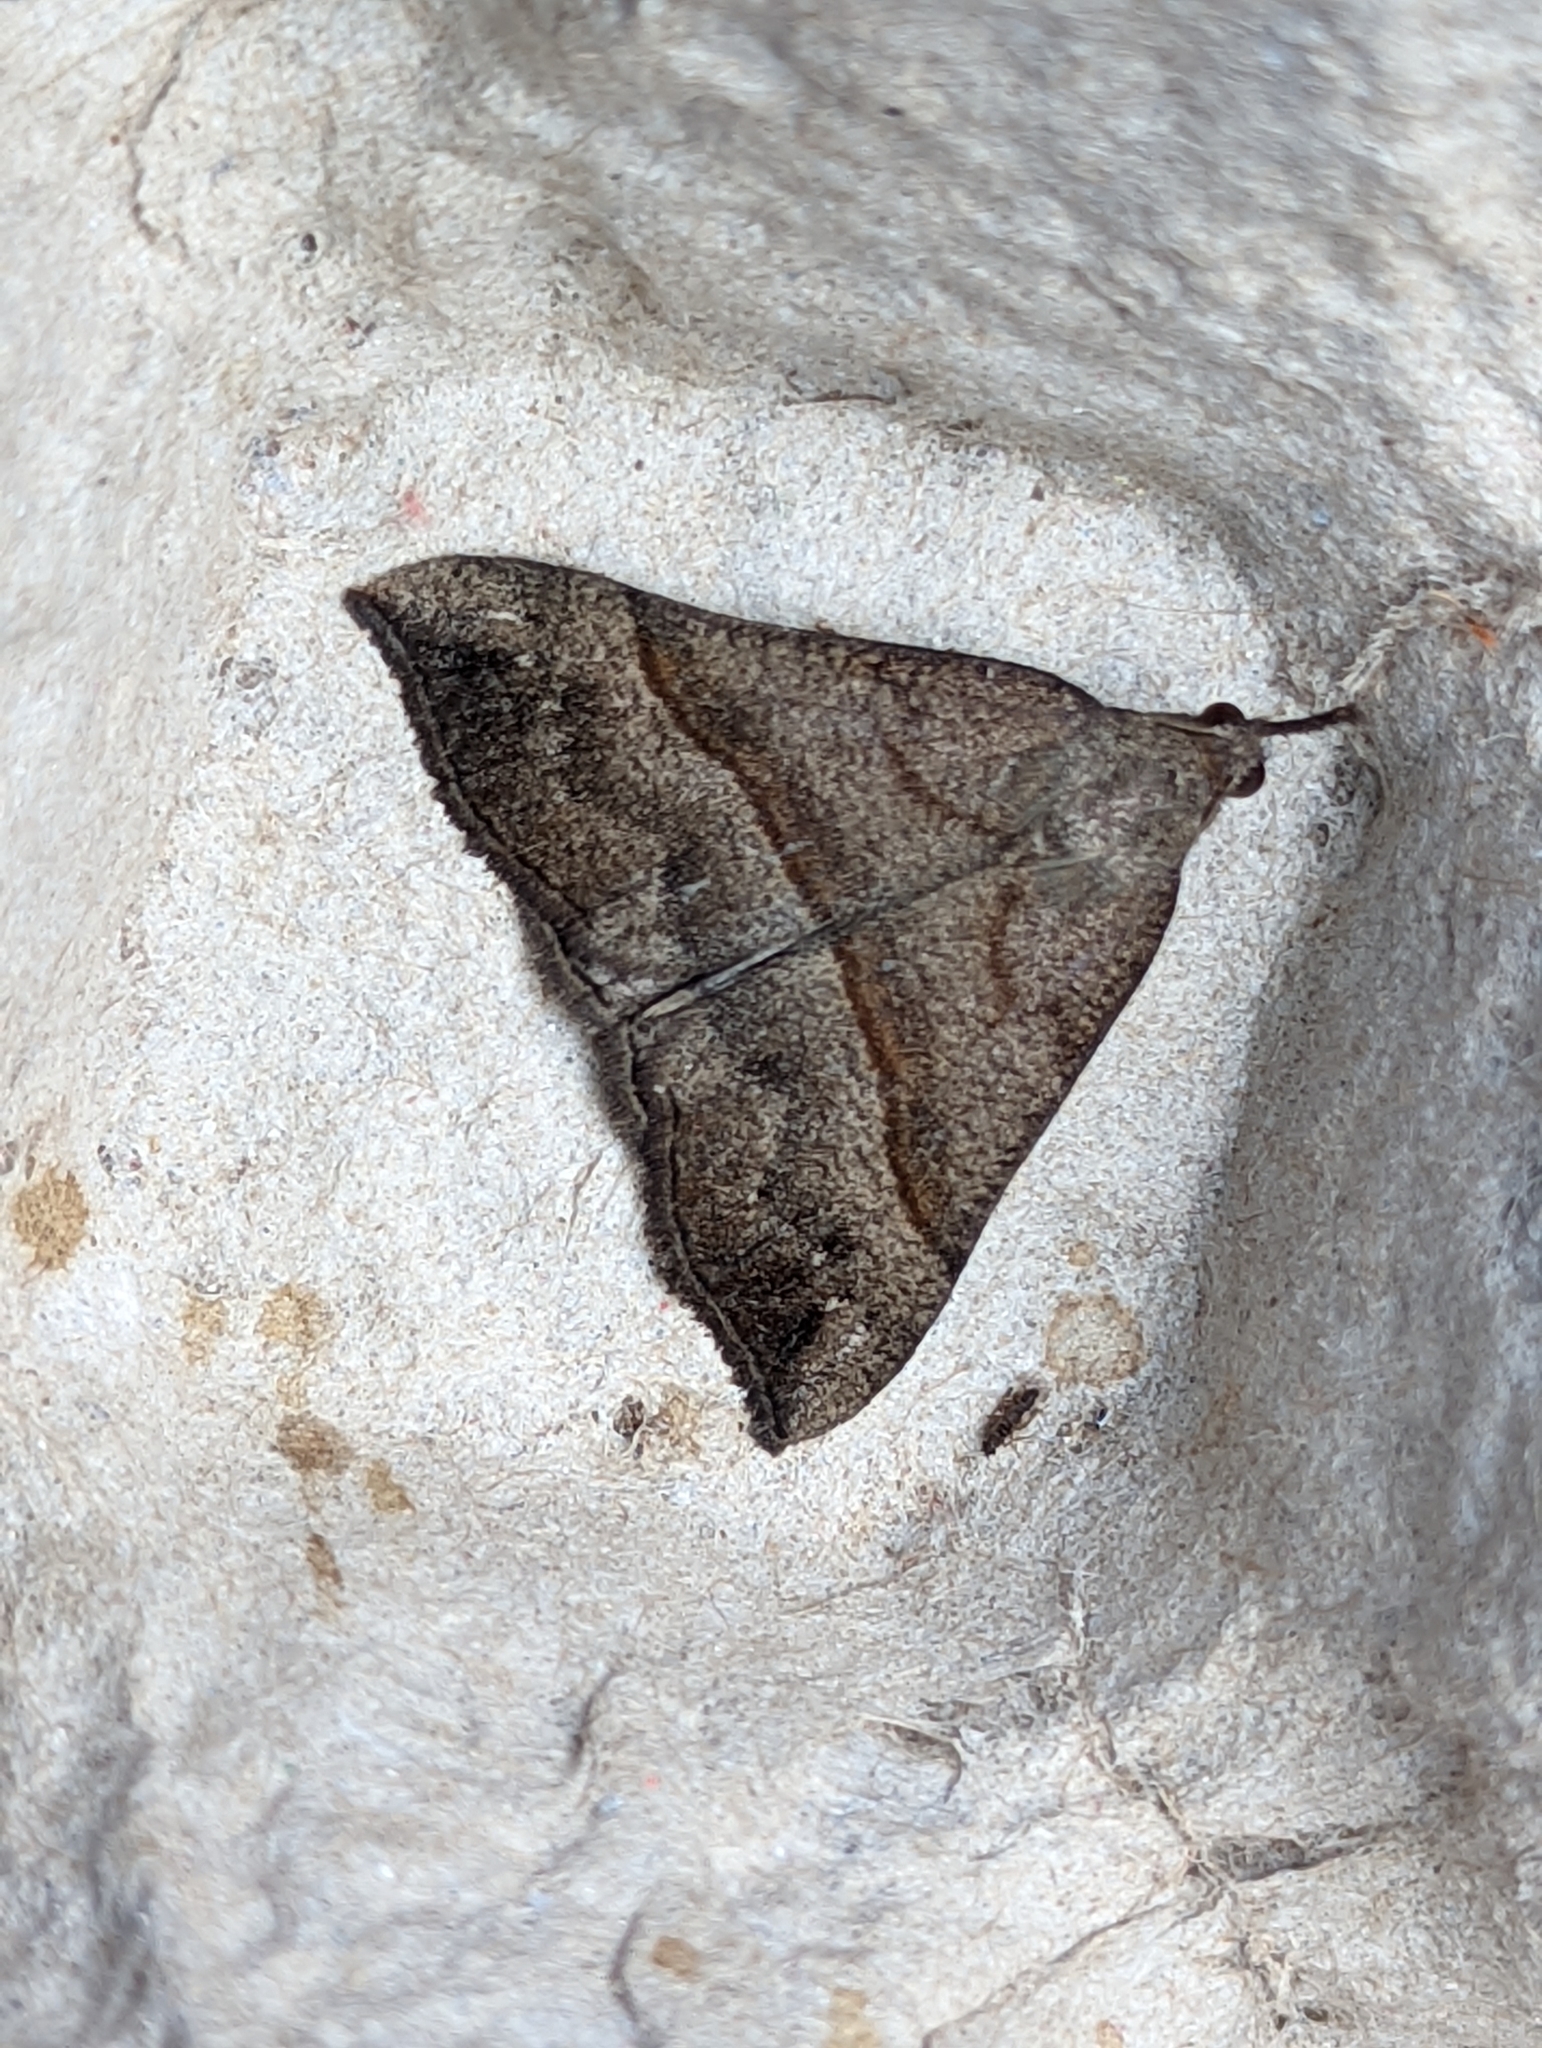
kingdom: Animalia
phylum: Arthropoda
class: Insecta
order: Lepidoptera
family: Erebidae
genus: Hypena
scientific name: Hypena proboscidalis
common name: Snout
